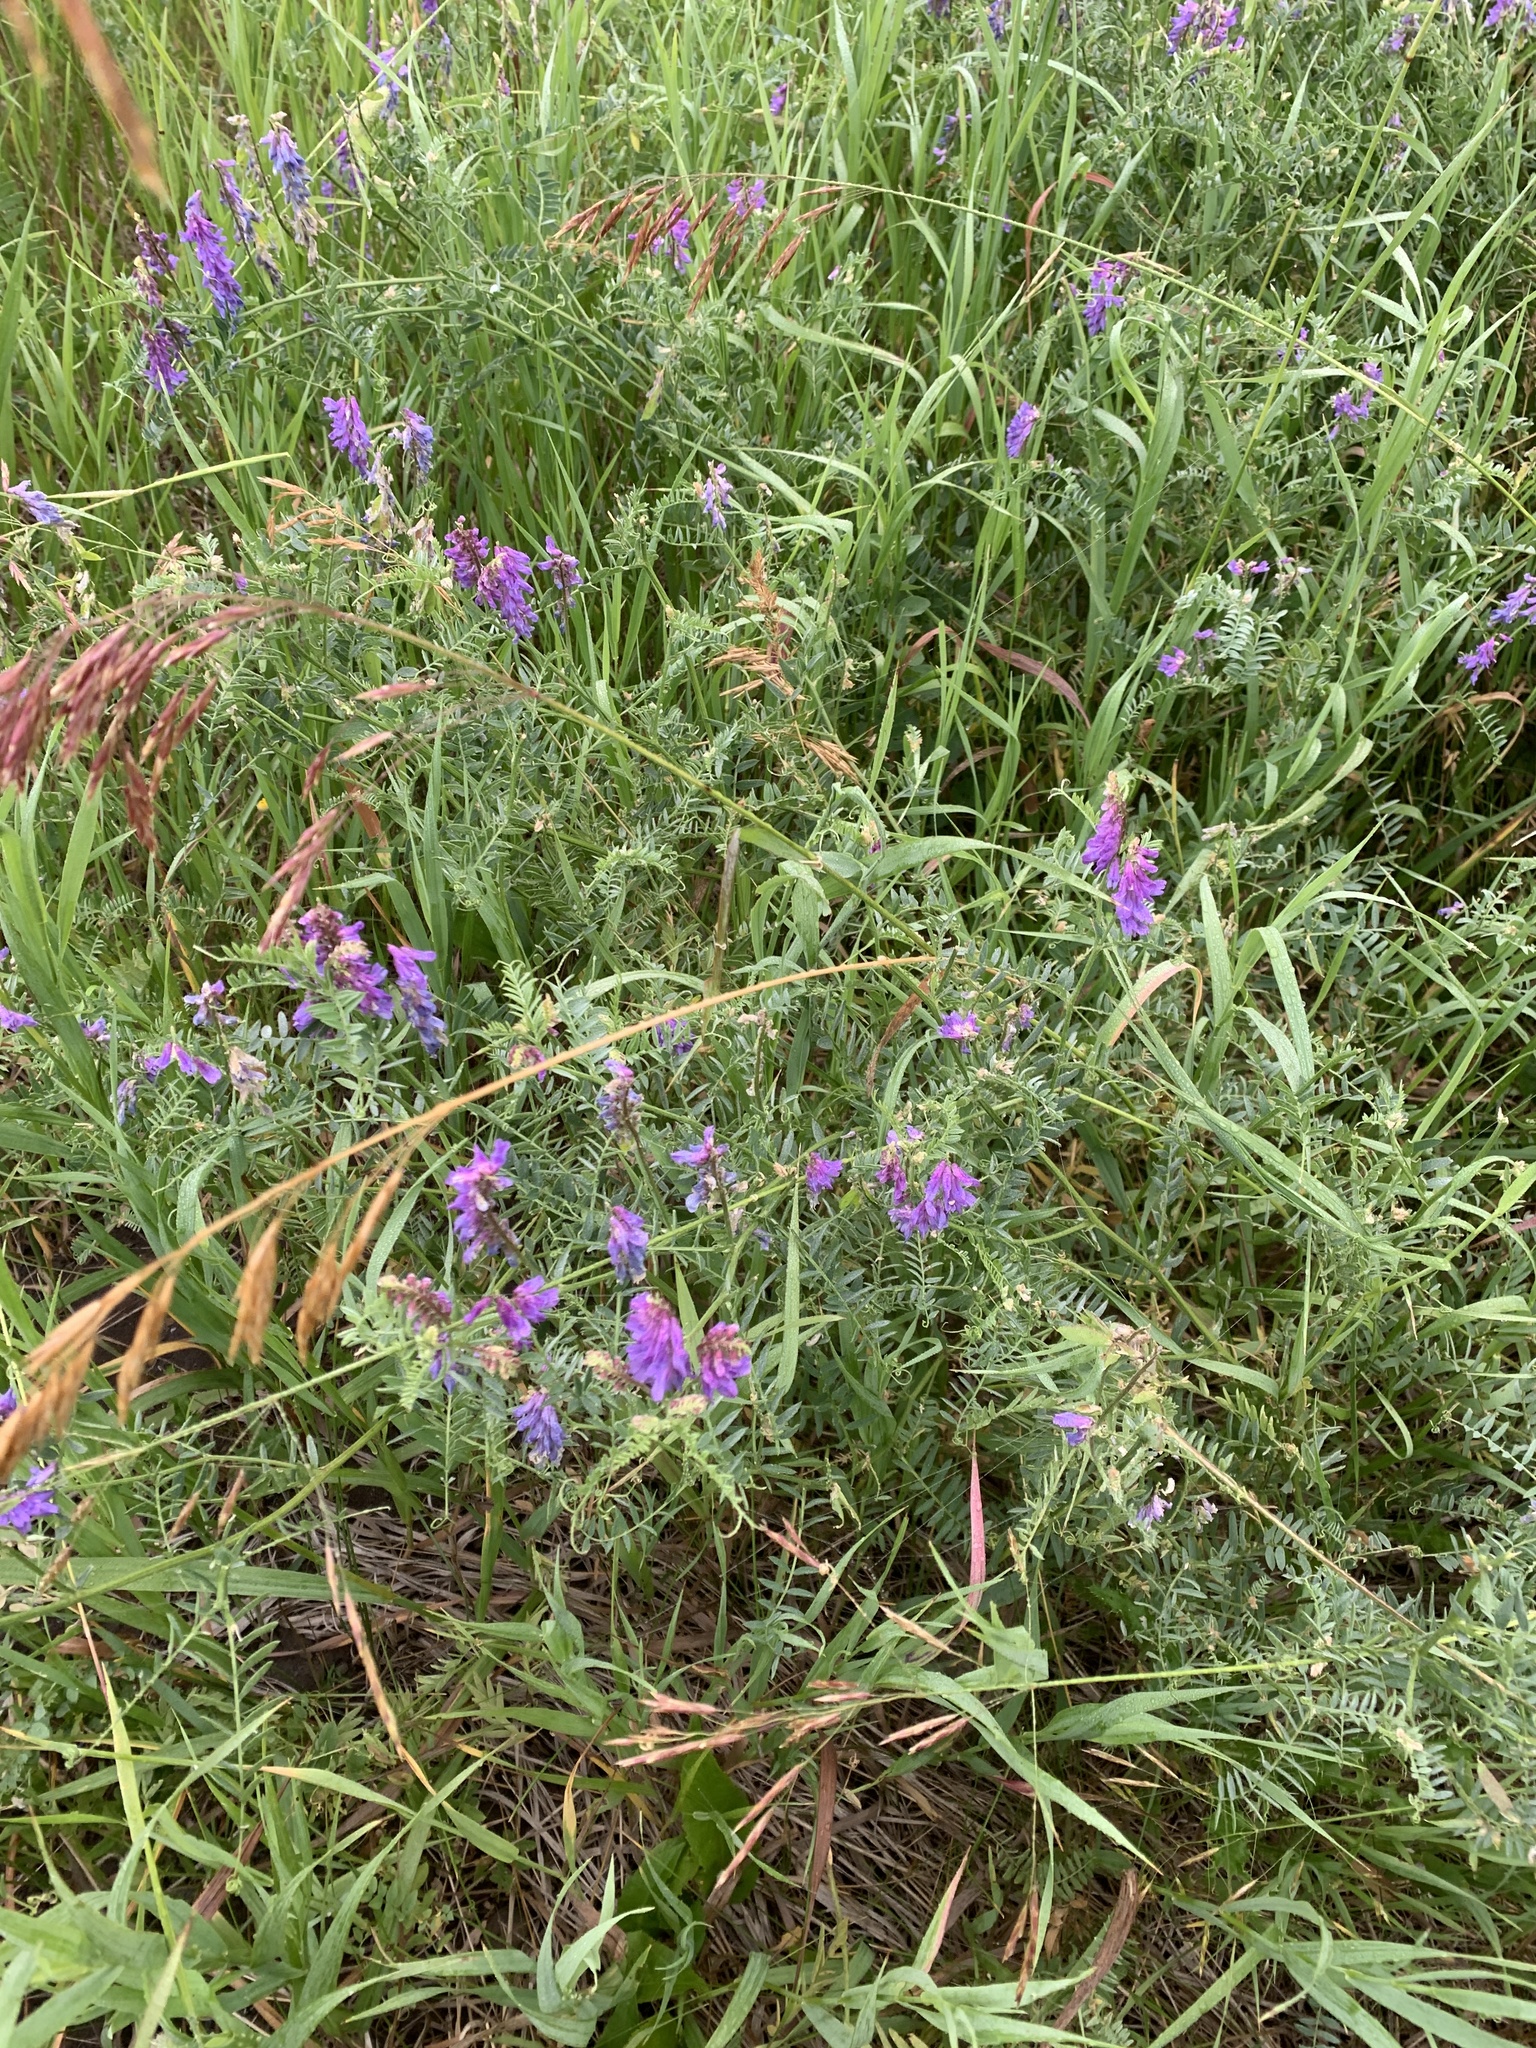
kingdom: Plantae
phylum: Tracheophyta
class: Magnoliopsida
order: Fabales
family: Fabaceae
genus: Vicia
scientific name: Vicia cracca
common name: Bird vetch
